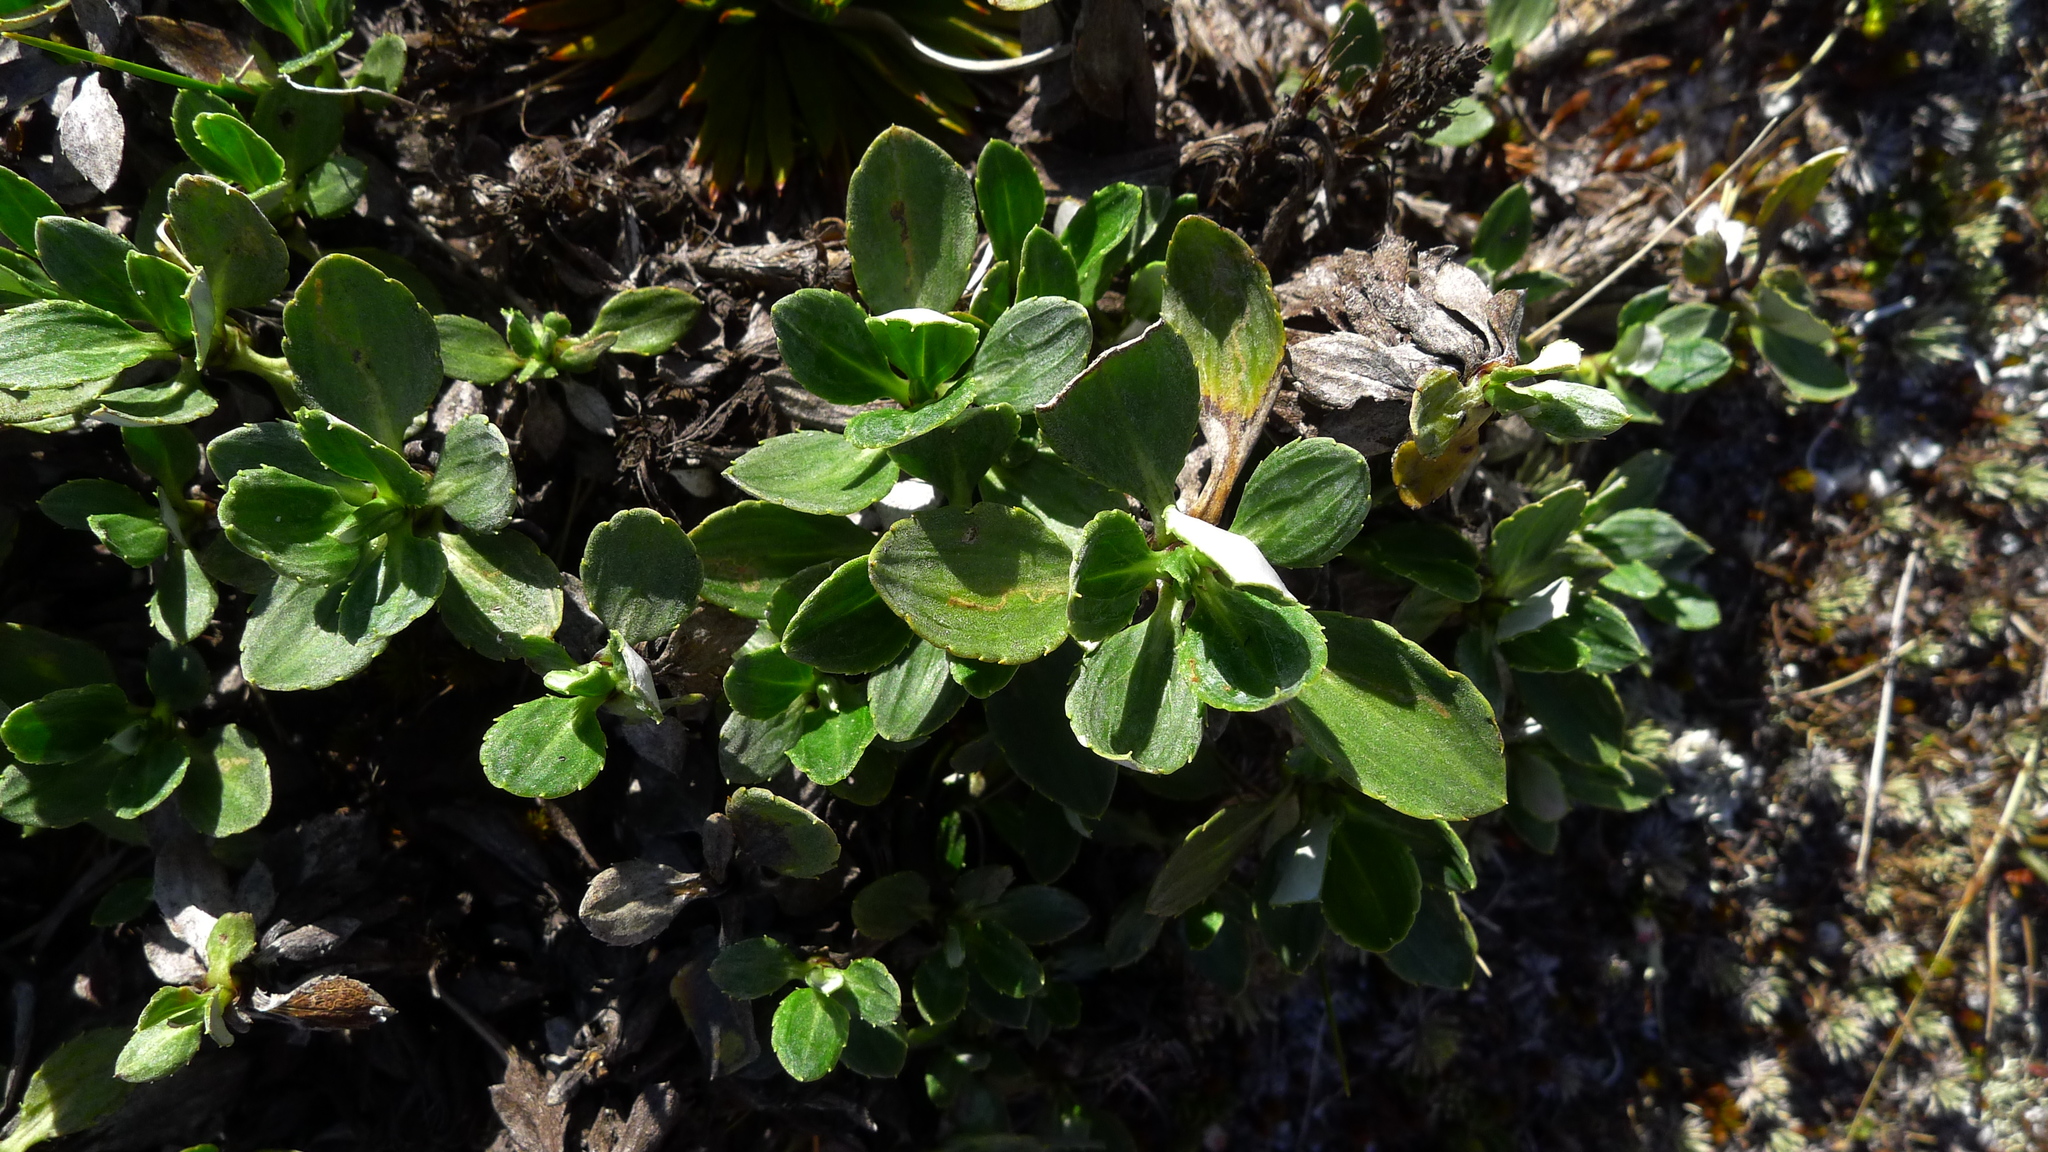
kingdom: Plantae
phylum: Tracheophyta
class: Magnoliopsida
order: Asterales
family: Asteraceae
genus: Celmisia
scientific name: Celmisia bonplandii
